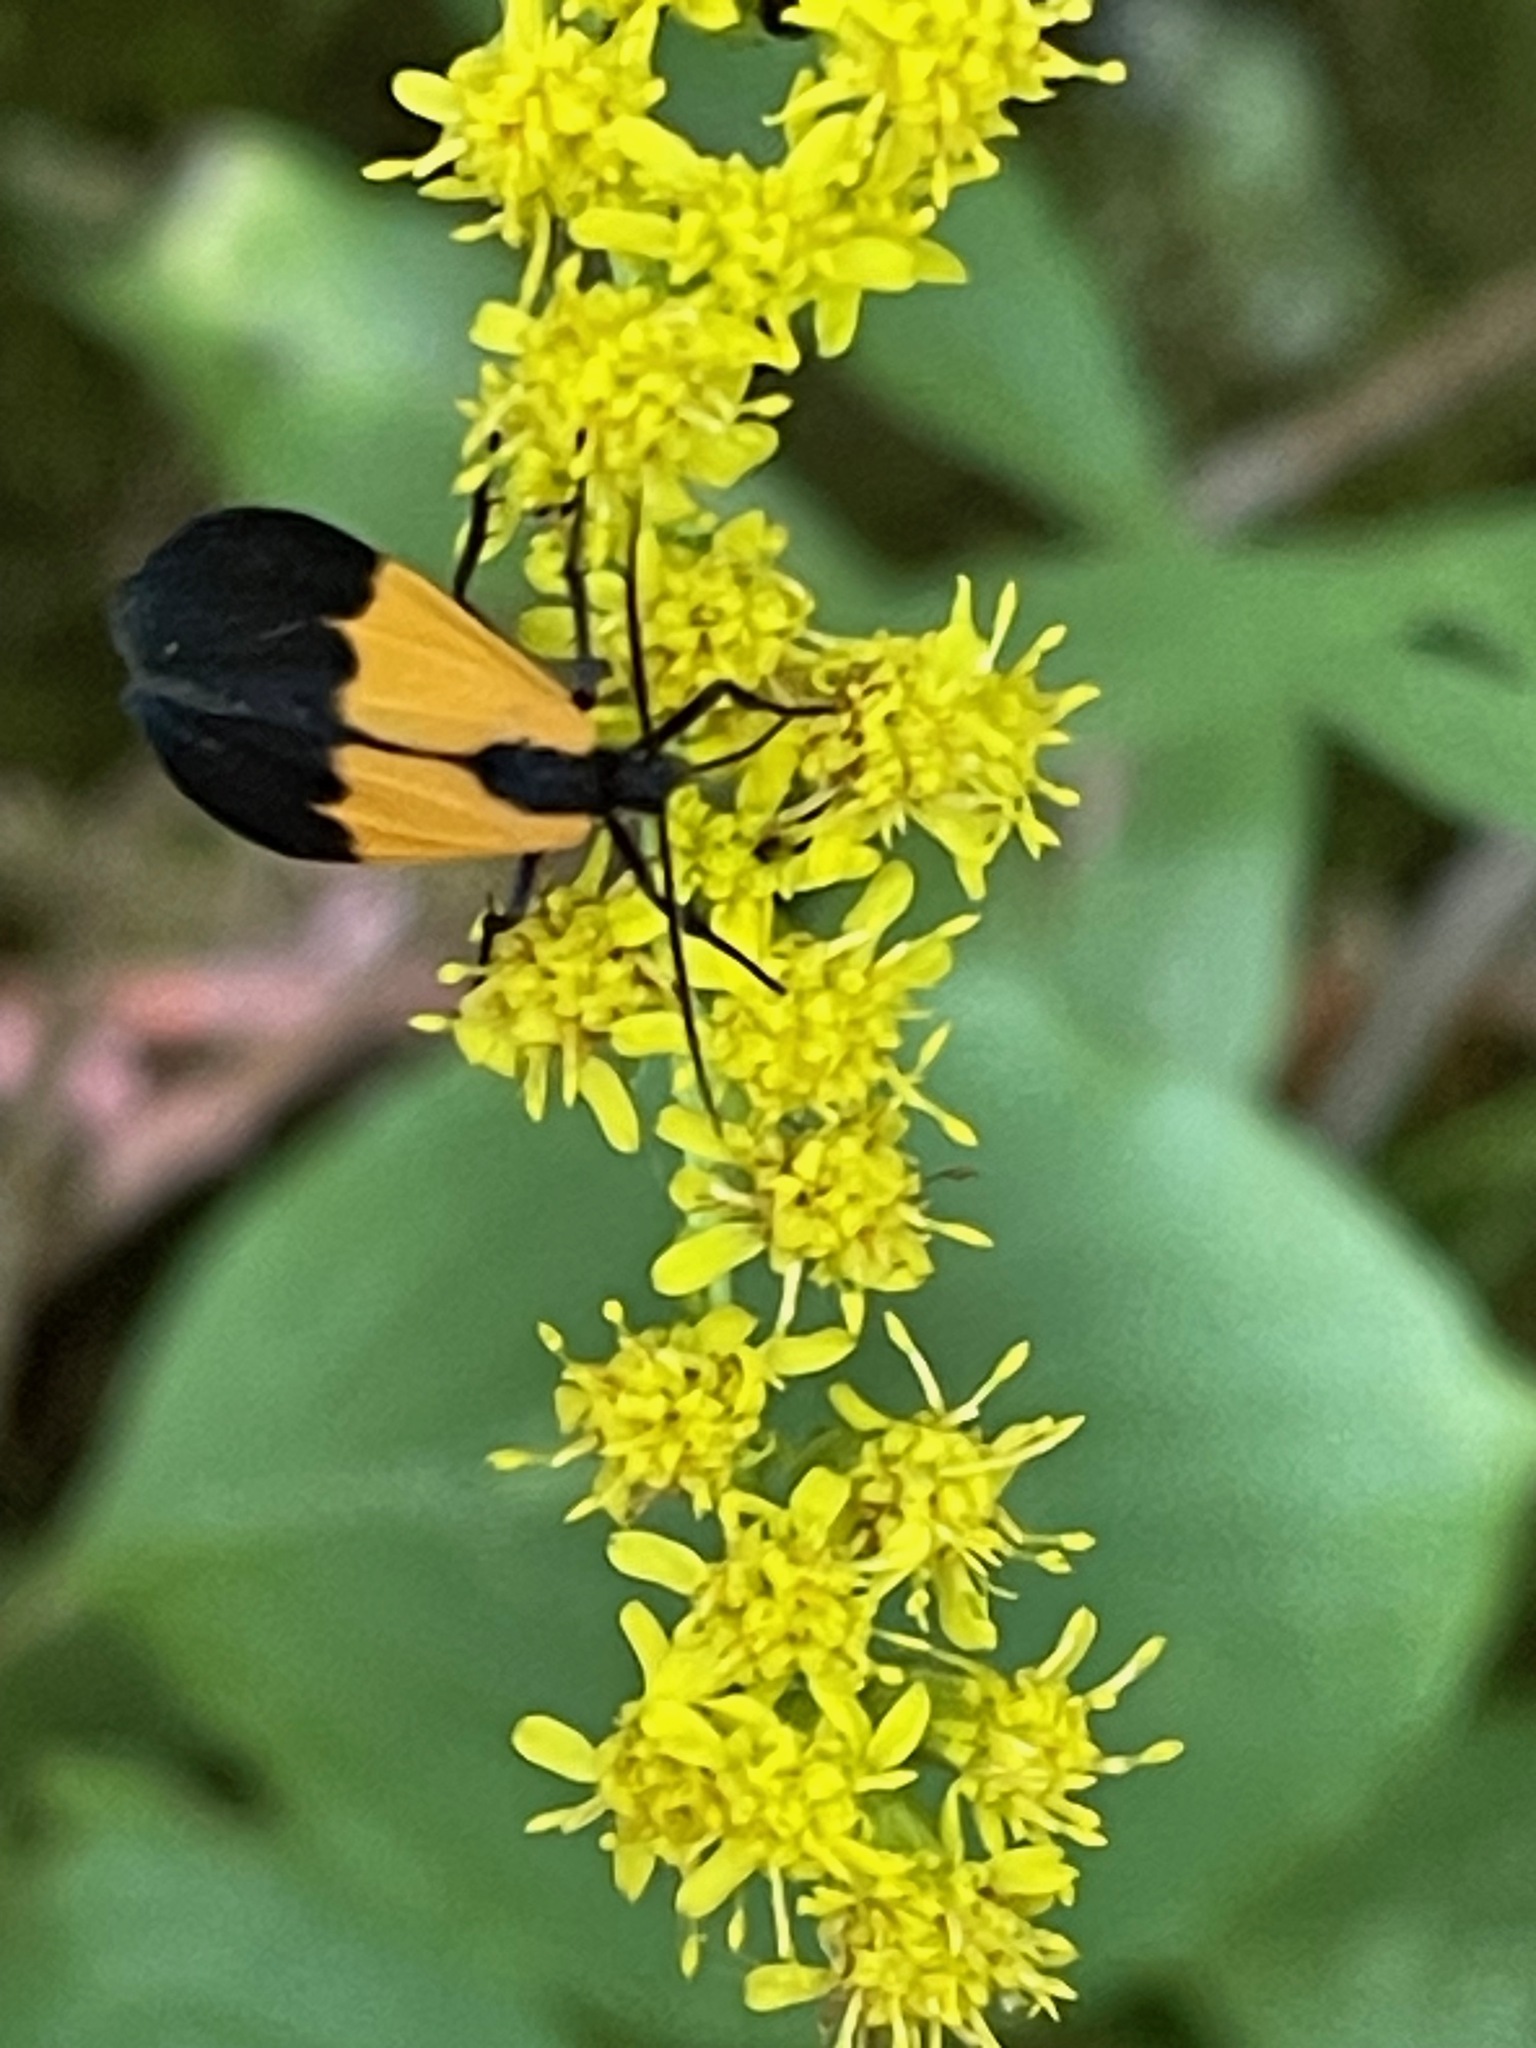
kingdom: Animalia
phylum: Arthropoda
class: Insecta
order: Lepidoptera
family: Erebidae
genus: Lycomorpha
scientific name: Lycomorpha pholus
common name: Black-and-yellow lichen moth
